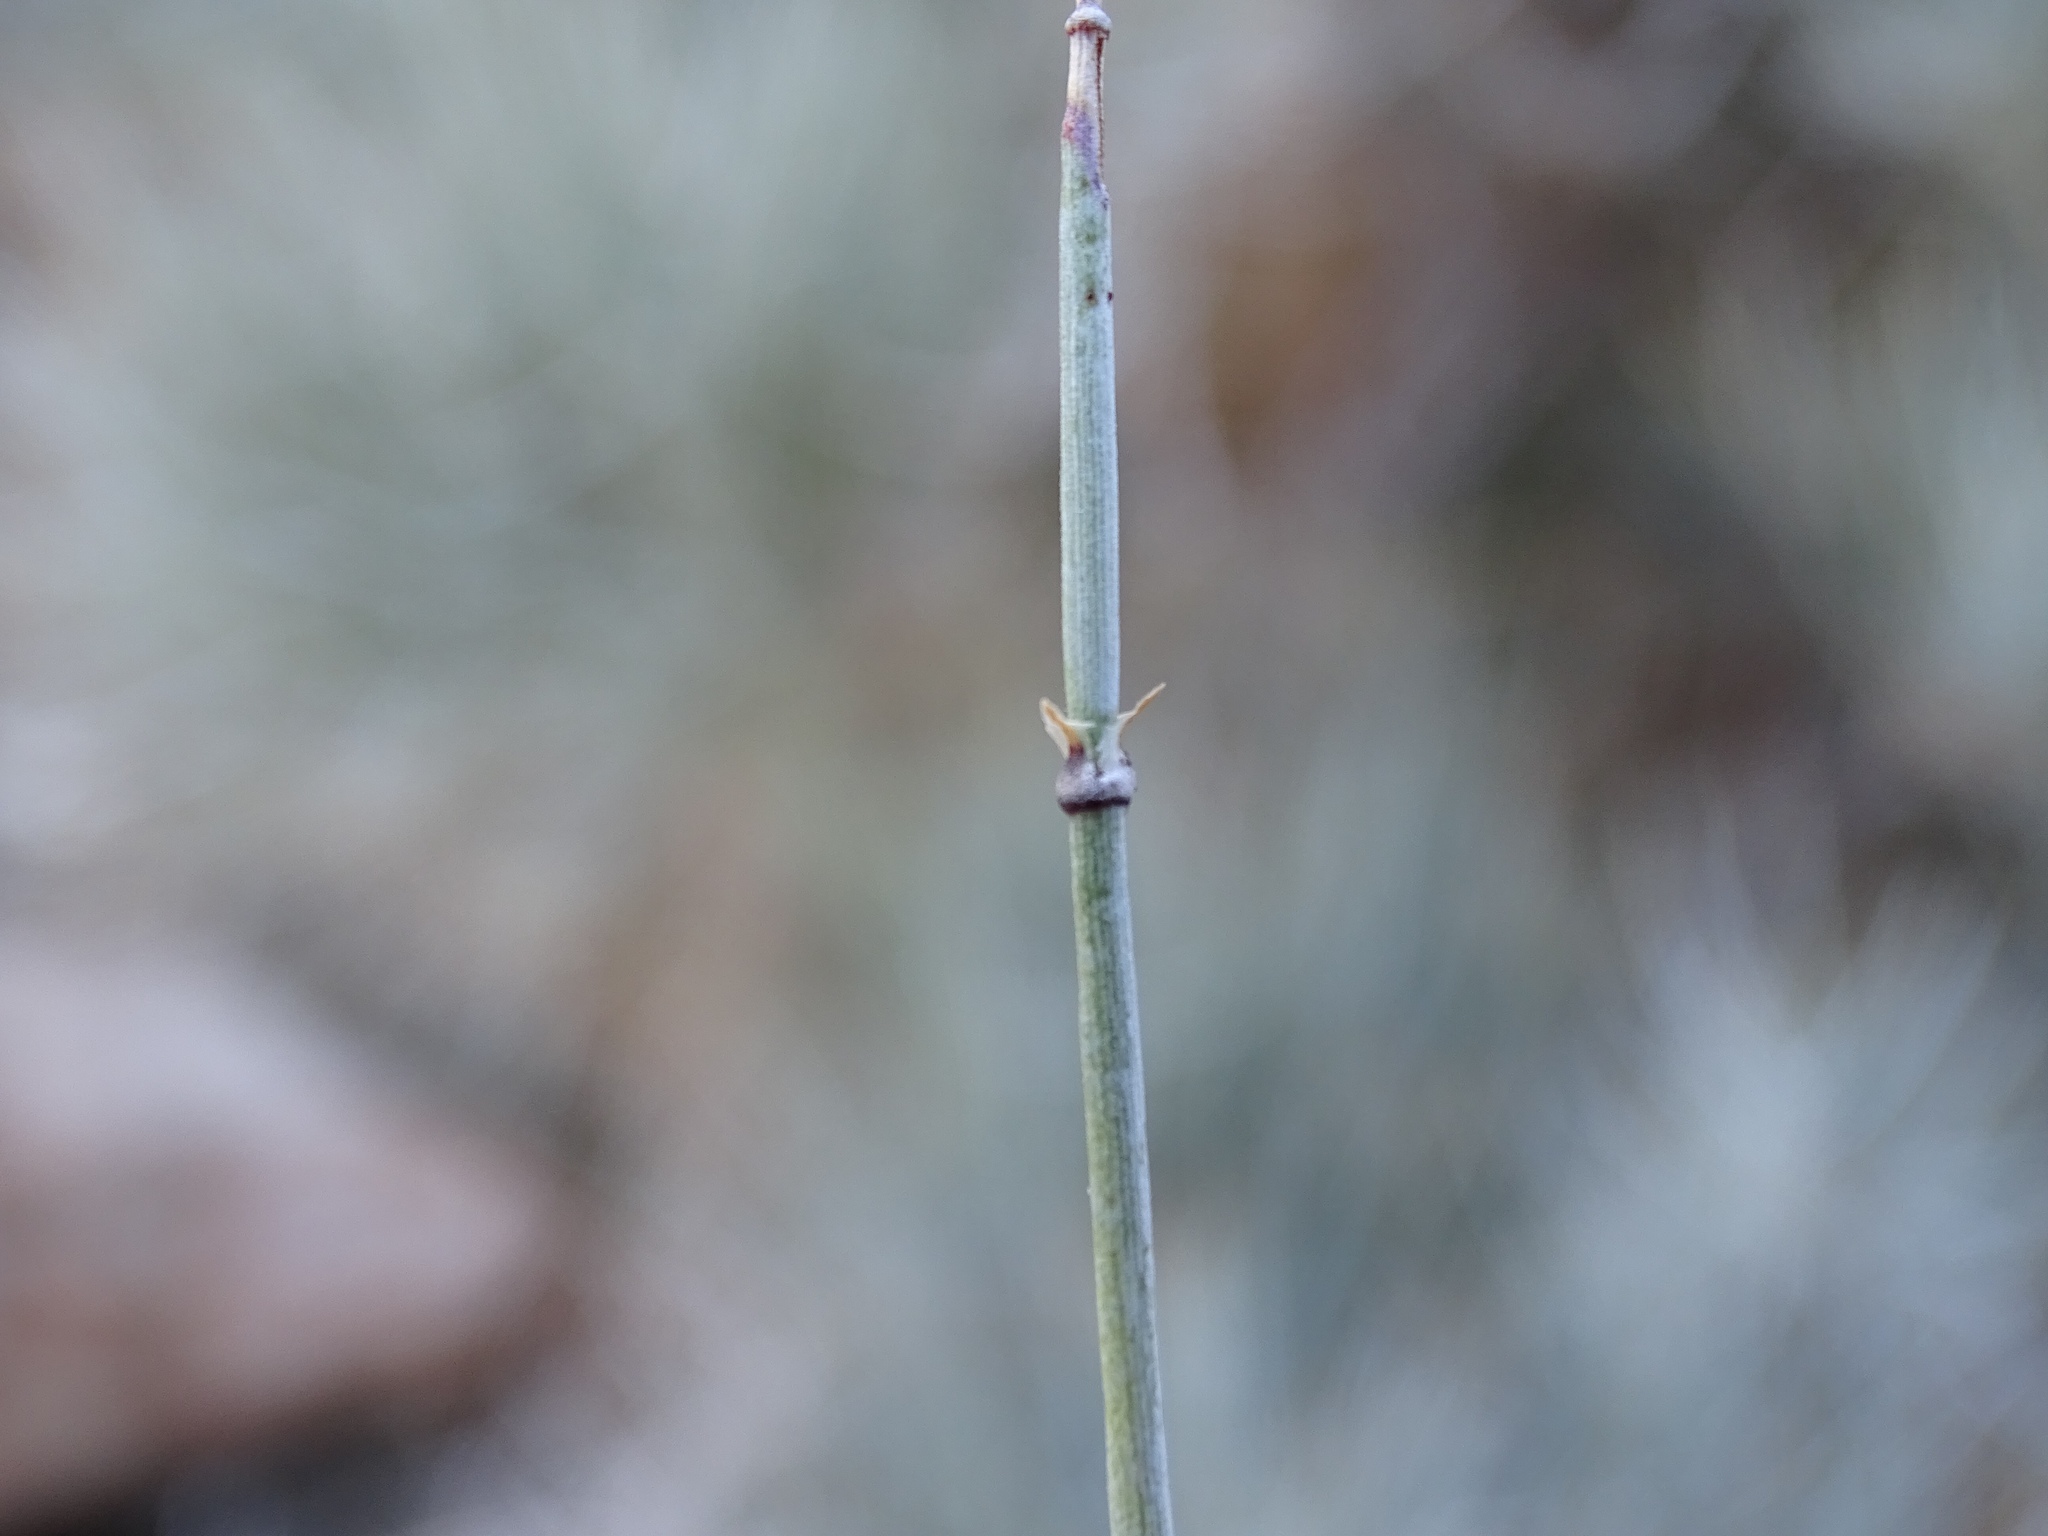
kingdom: Plantae
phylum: Tracheophyta
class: Gnetopsida
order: Ephedrales
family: Ephedraceae
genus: Ephedra
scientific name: Ephedra aspera
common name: Boundary ephedra
